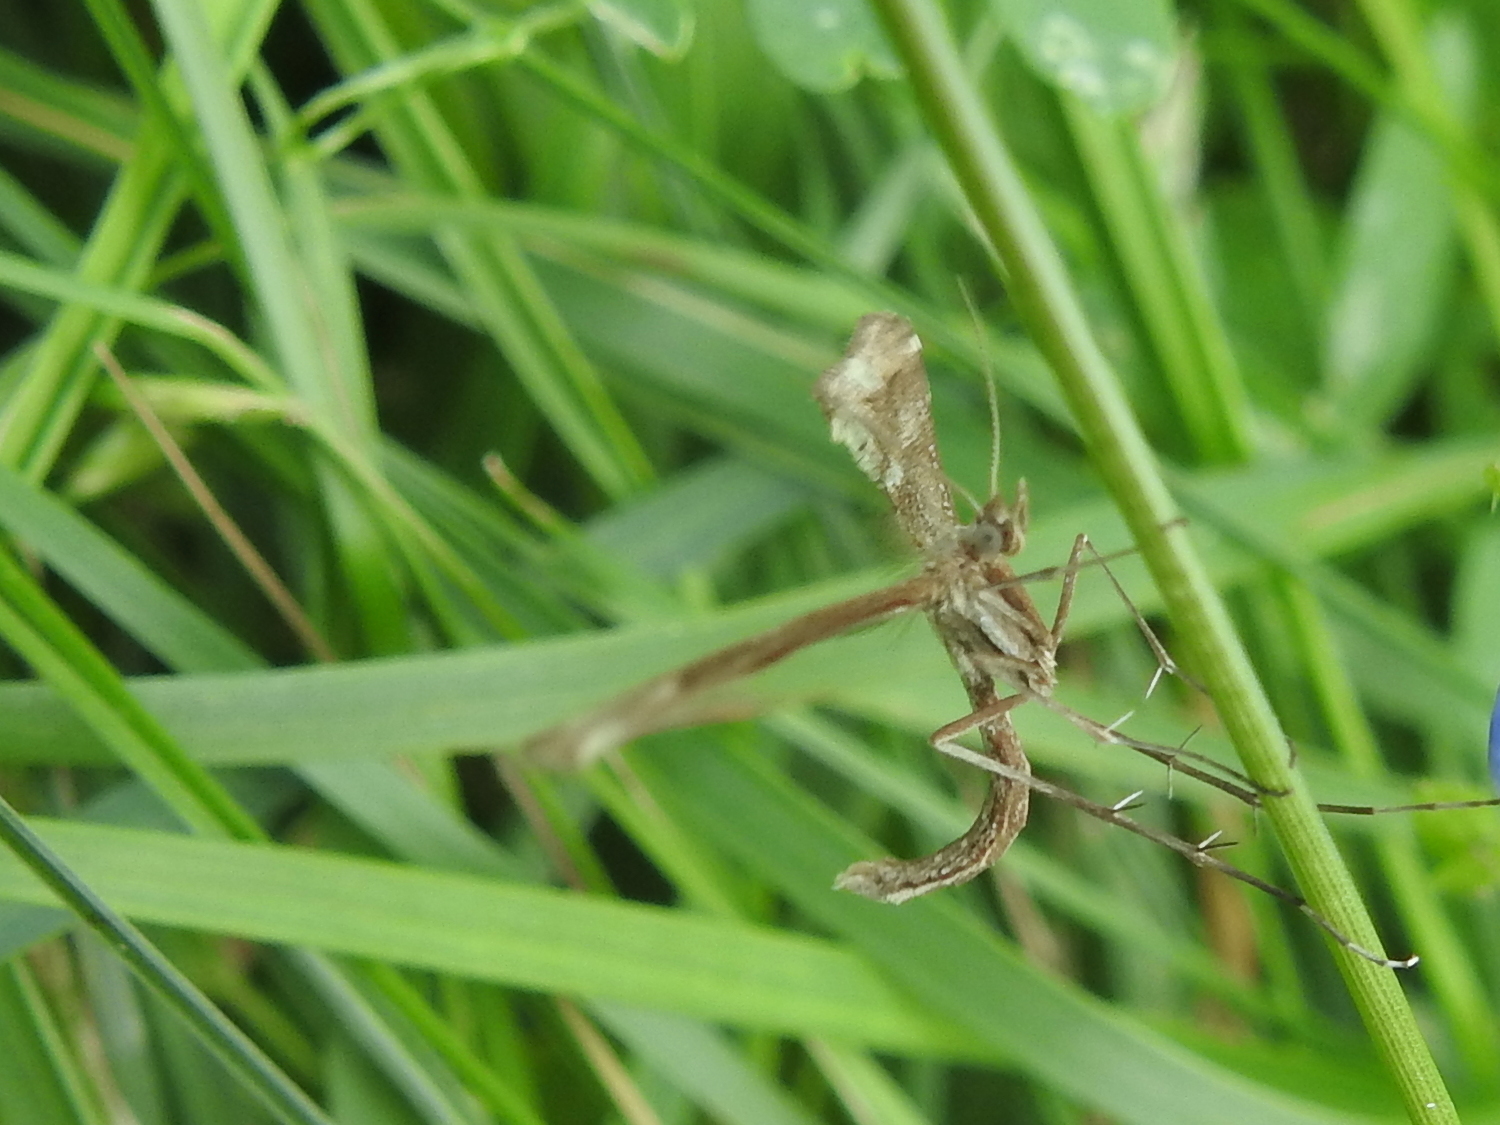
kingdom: Animalia
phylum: Arthropoda
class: Insecta
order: Lepidoptera
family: Pterophoridae
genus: Gillmeria
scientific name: Gillmeria pallidactyla
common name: Yarrow plume
